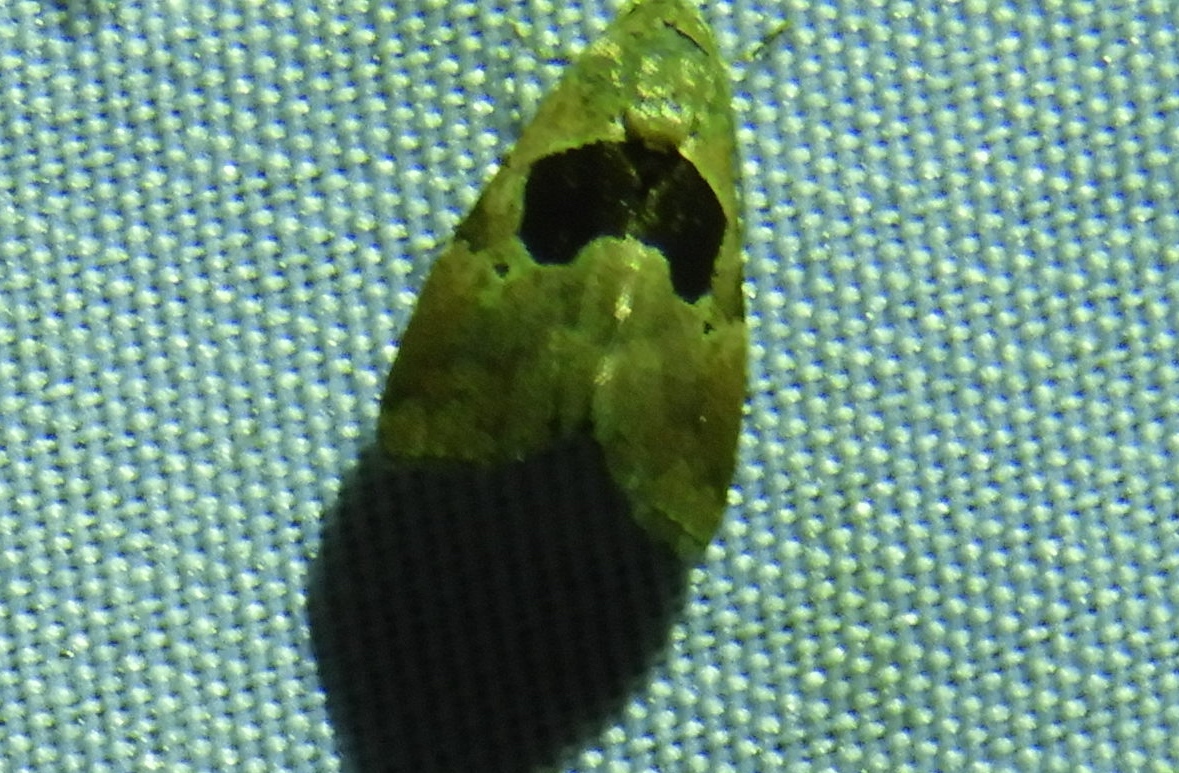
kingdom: Animalia
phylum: Arthropoda
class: Insecta
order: Lepidoptera
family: Noctuidae
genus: Tripudia
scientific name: Tripudia
